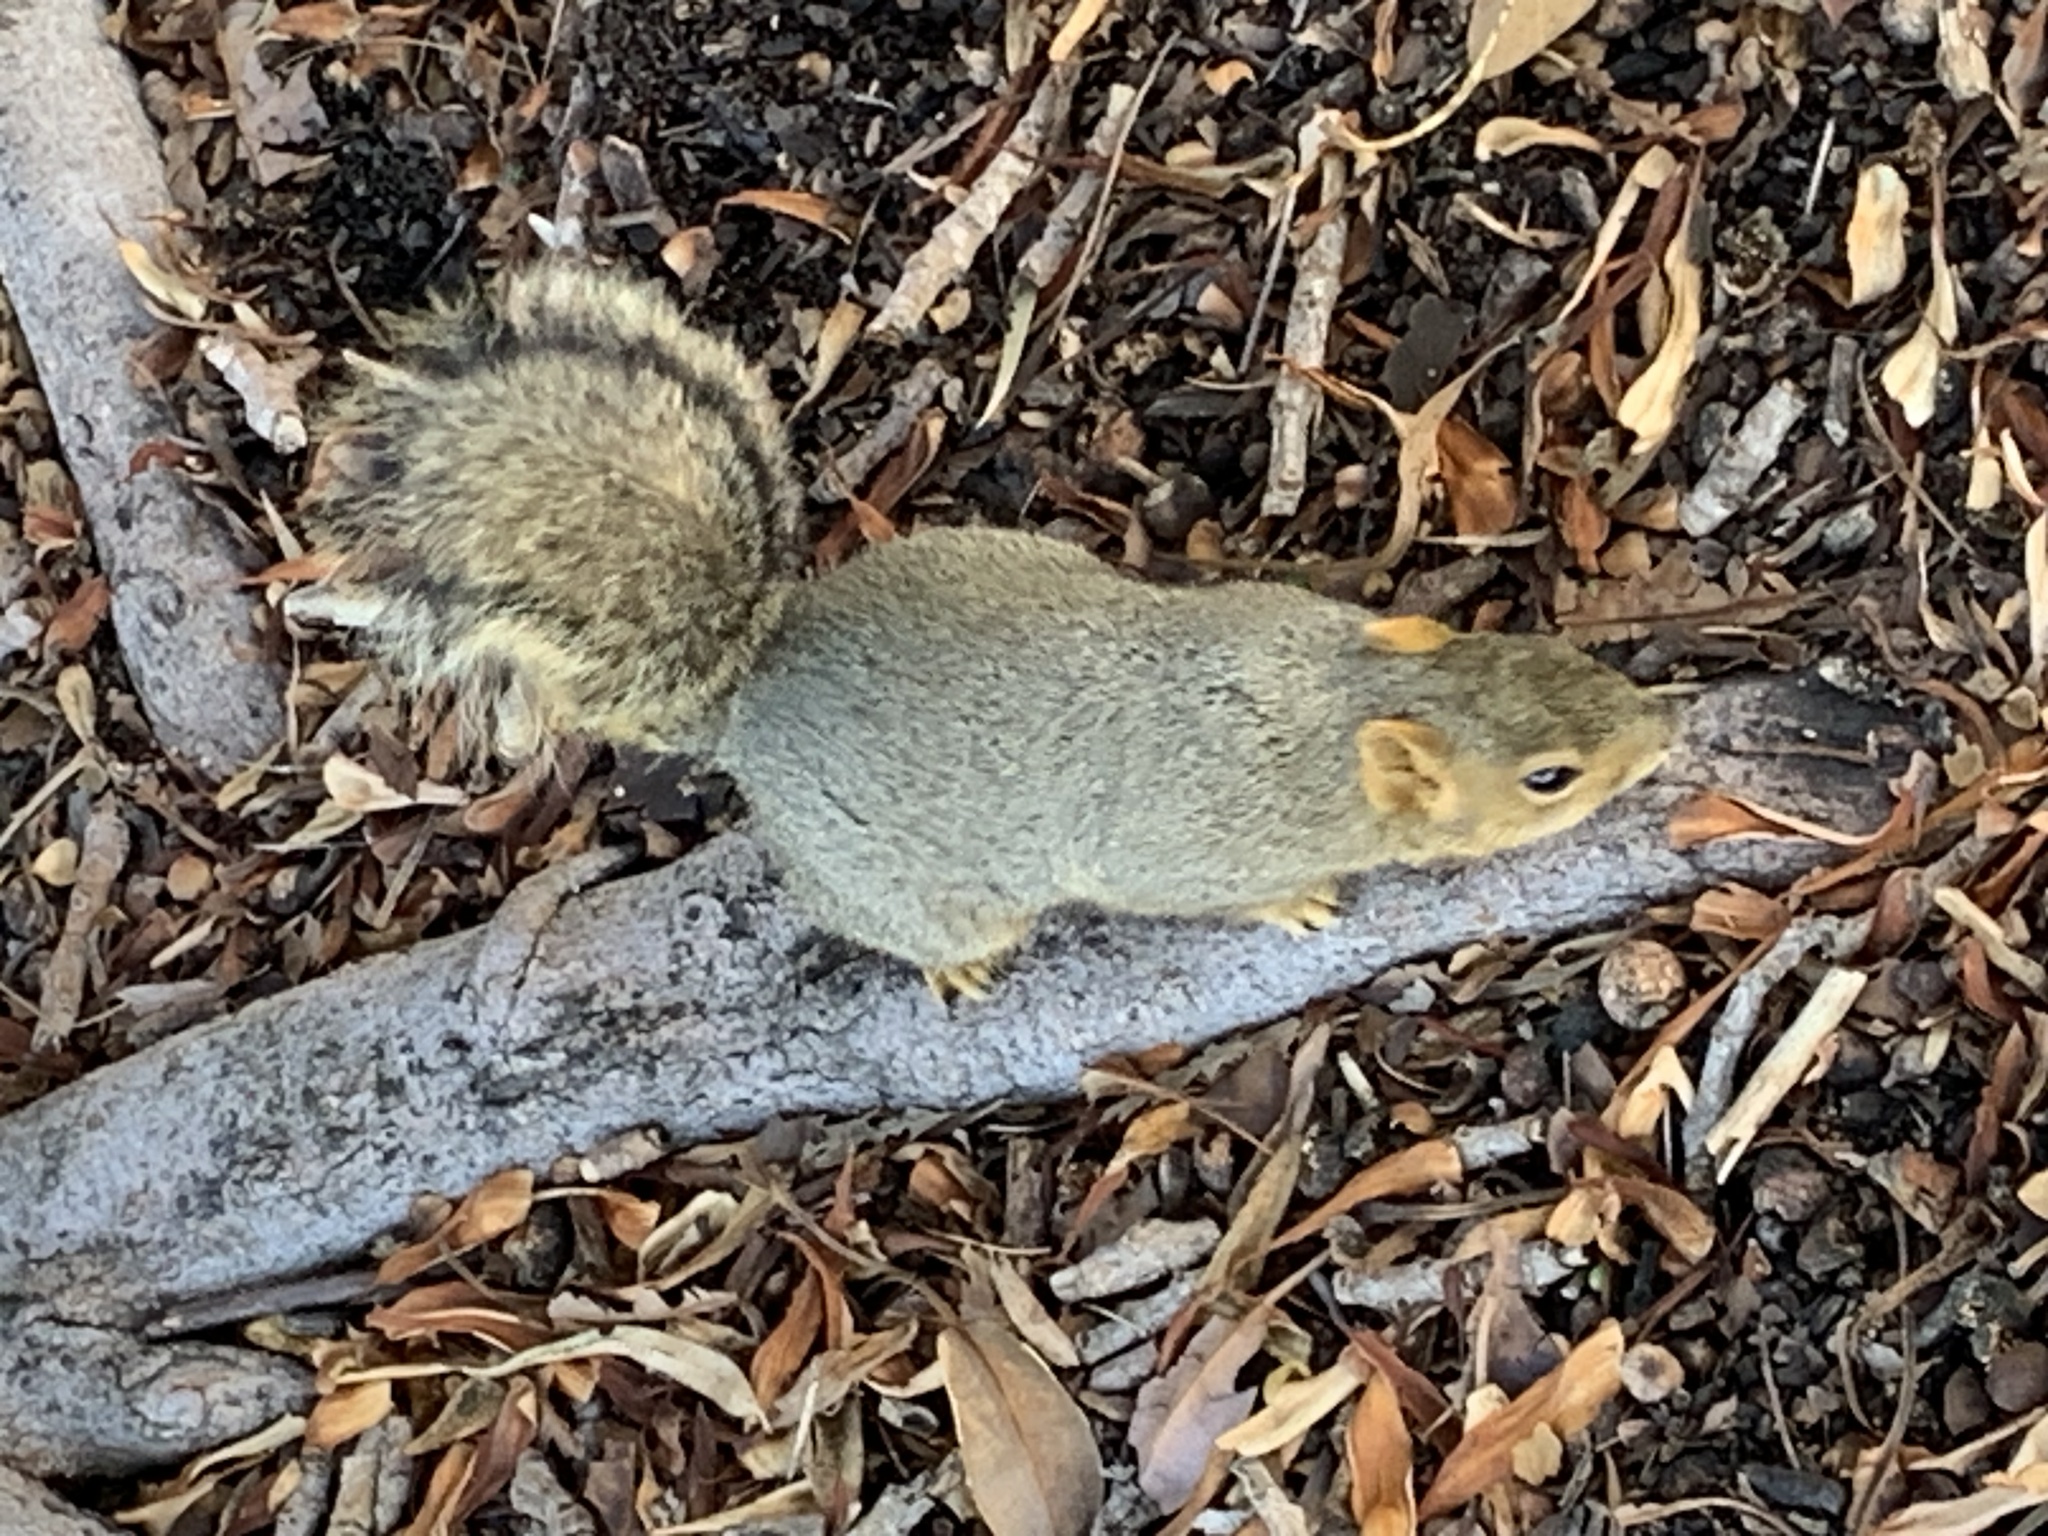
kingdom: Animalia
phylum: Chordata
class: Mammalia
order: Rodentia
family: Sciuridae
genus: Sciurus
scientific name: Sciurus niger
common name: Fox squirrel
